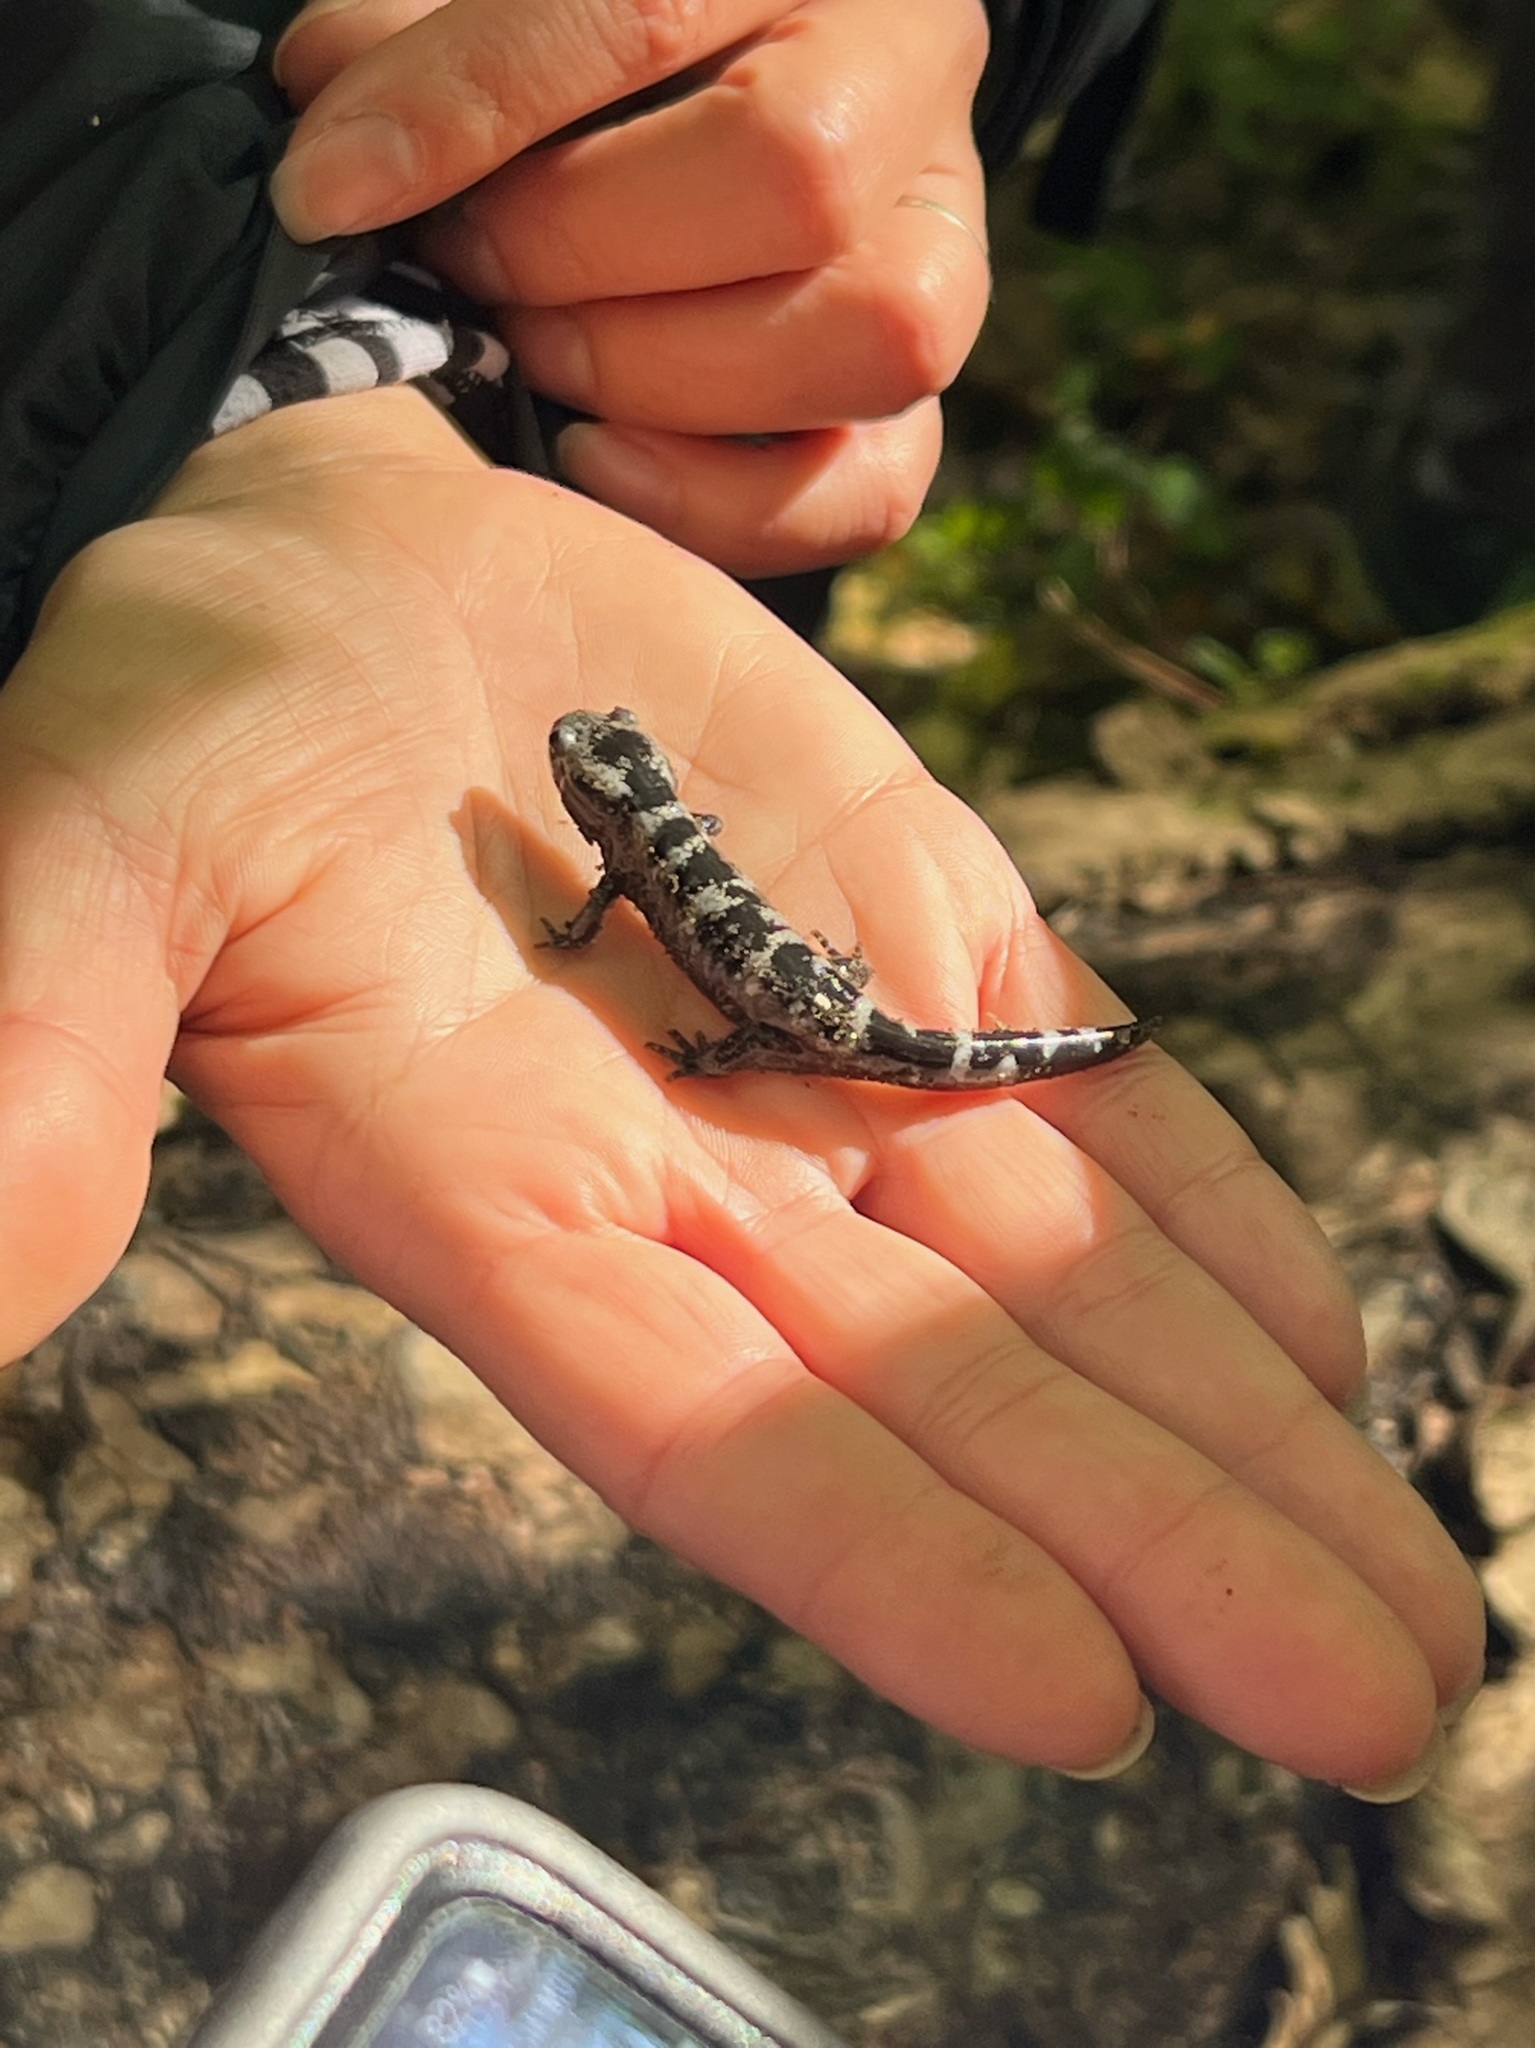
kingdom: Animalia
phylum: Chordata
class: Amphibia
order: Caudata
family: Ambystomatidae
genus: Ambystoma
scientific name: Ambystoma opacum
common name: Marbled salamander
